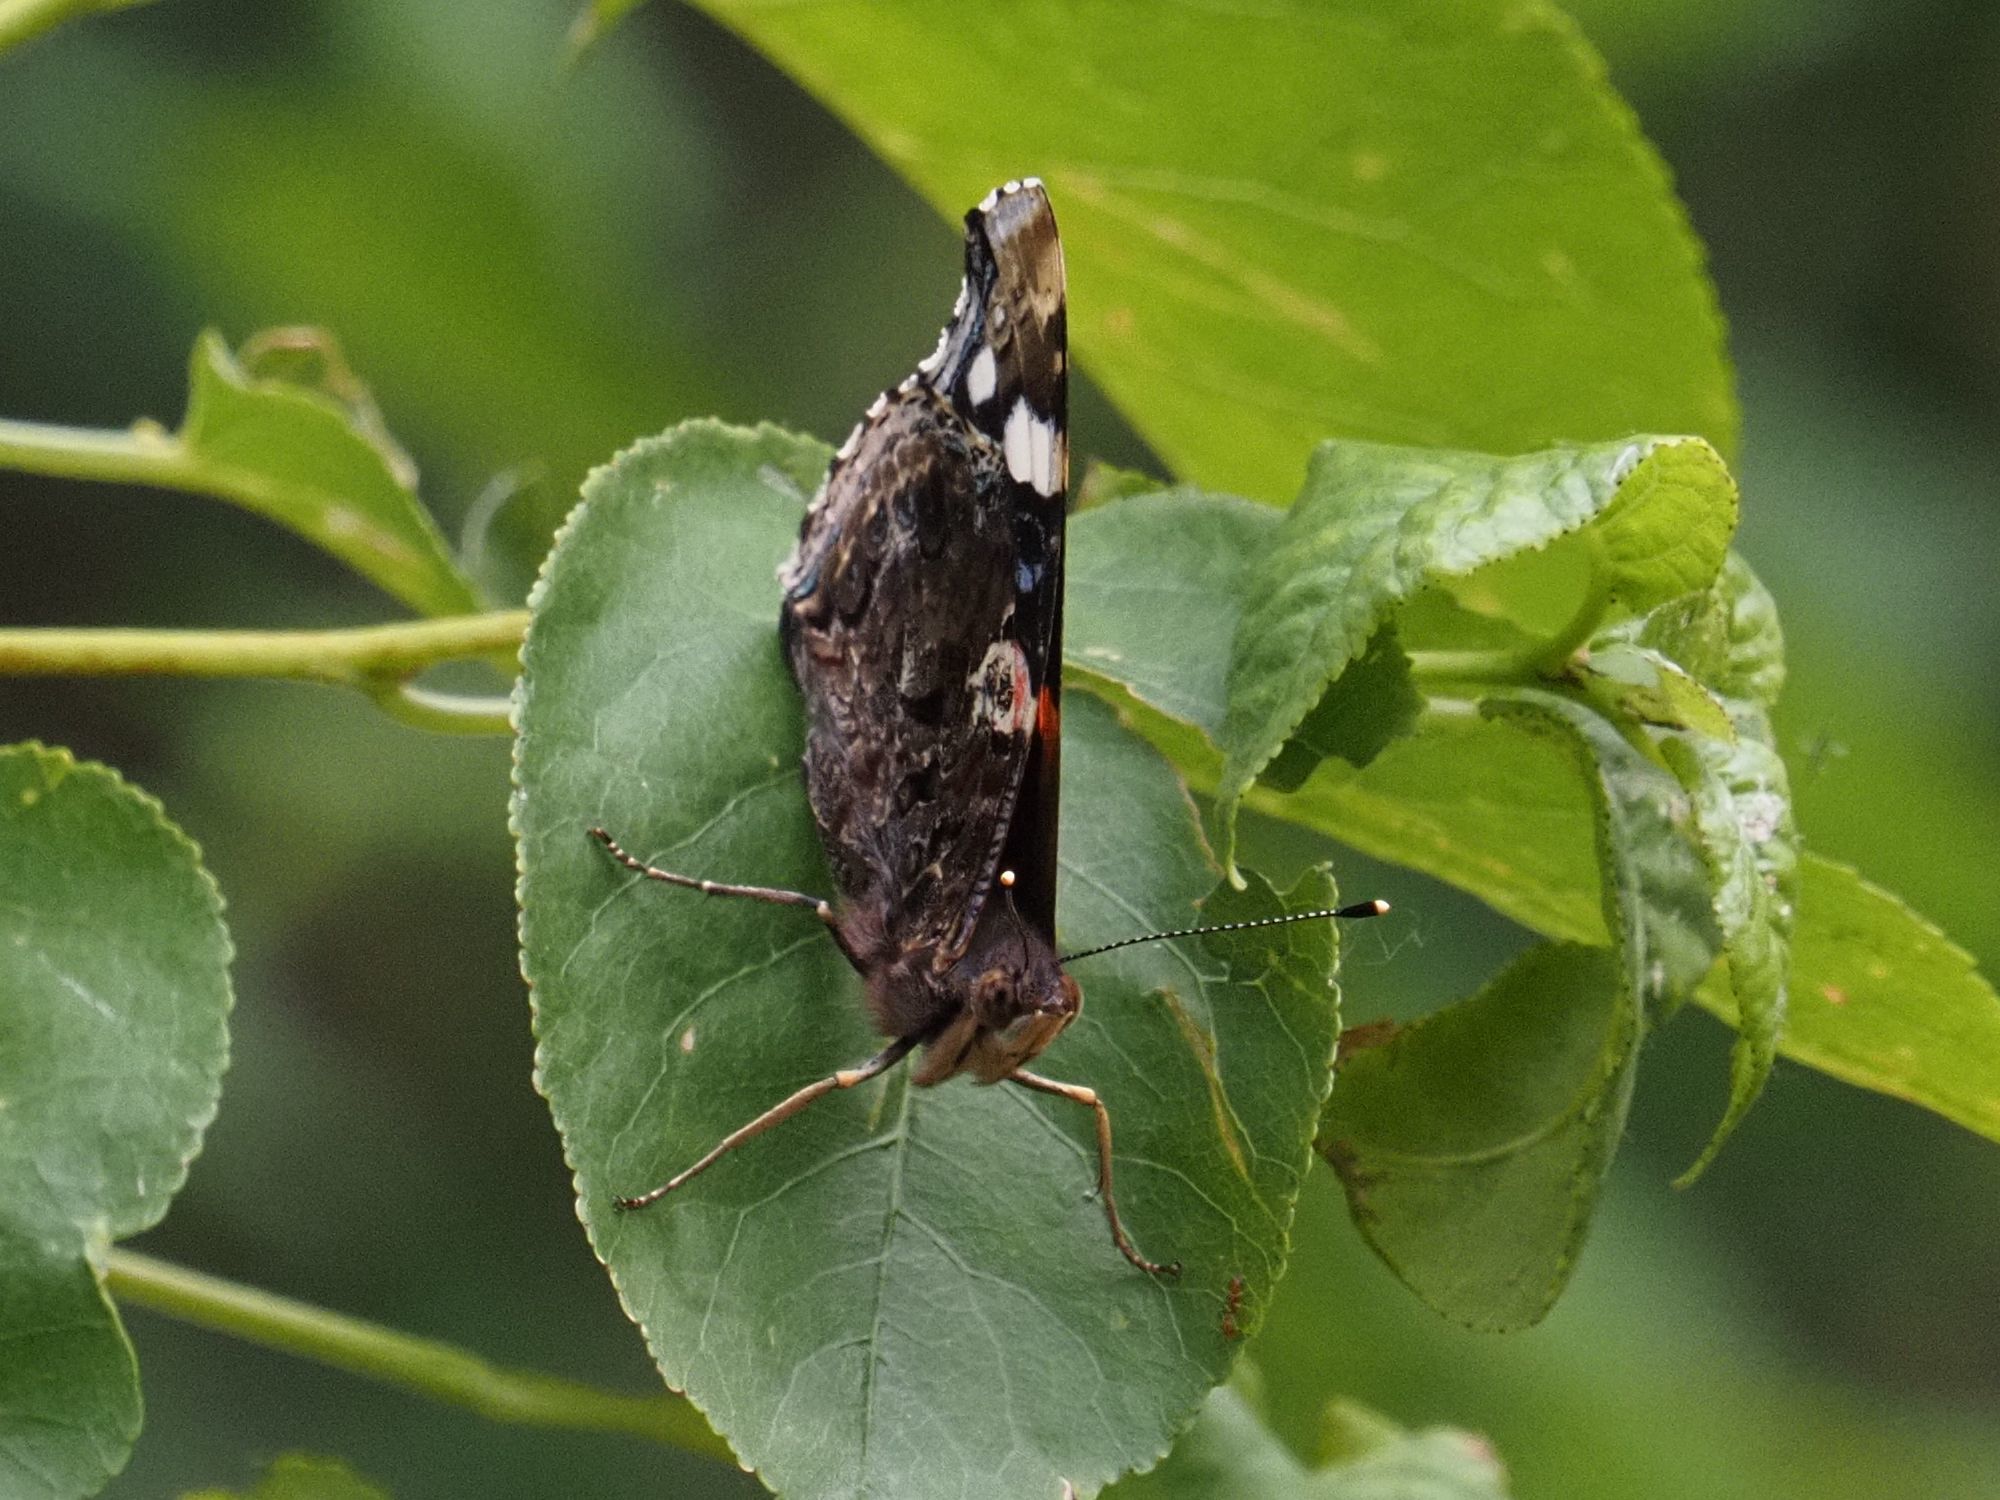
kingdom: Animalia
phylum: Arthropoda
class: Insecta
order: Lepidoptera
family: Nymphalidae
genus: Vanessa
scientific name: Vanessa atalanta
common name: Red admiral
